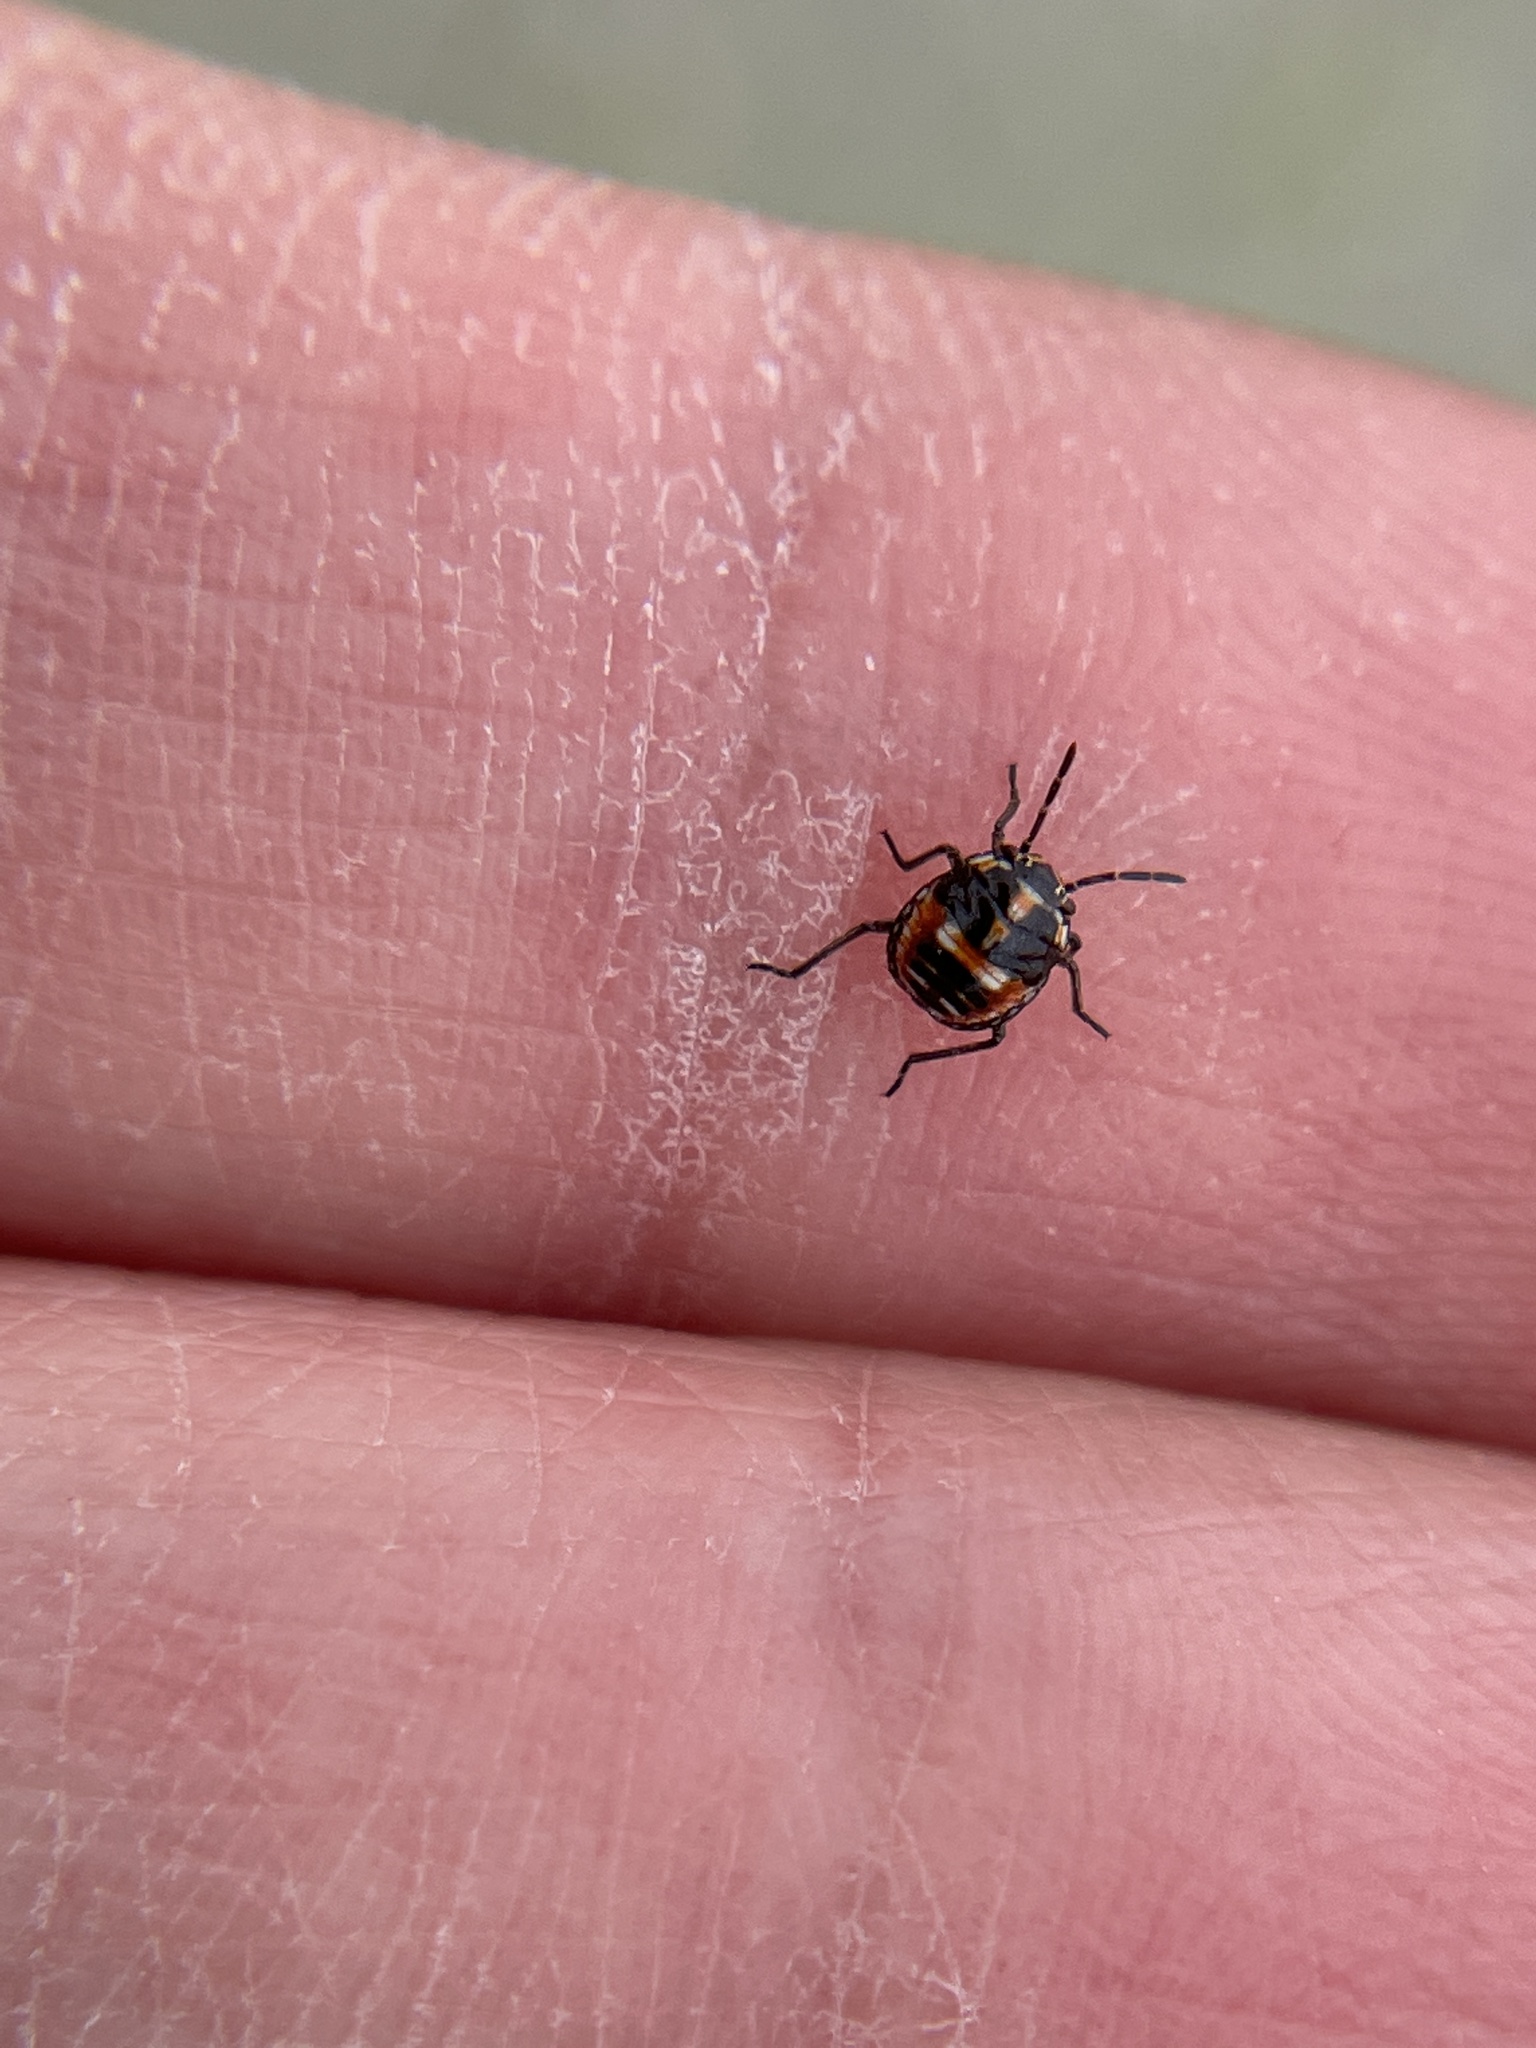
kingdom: Animalia
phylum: Arthropoda
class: Insecta
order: Hemiptera
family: Pentatomidae
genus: Bagrada
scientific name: Bagrada hilaris
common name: Bagrada bug
